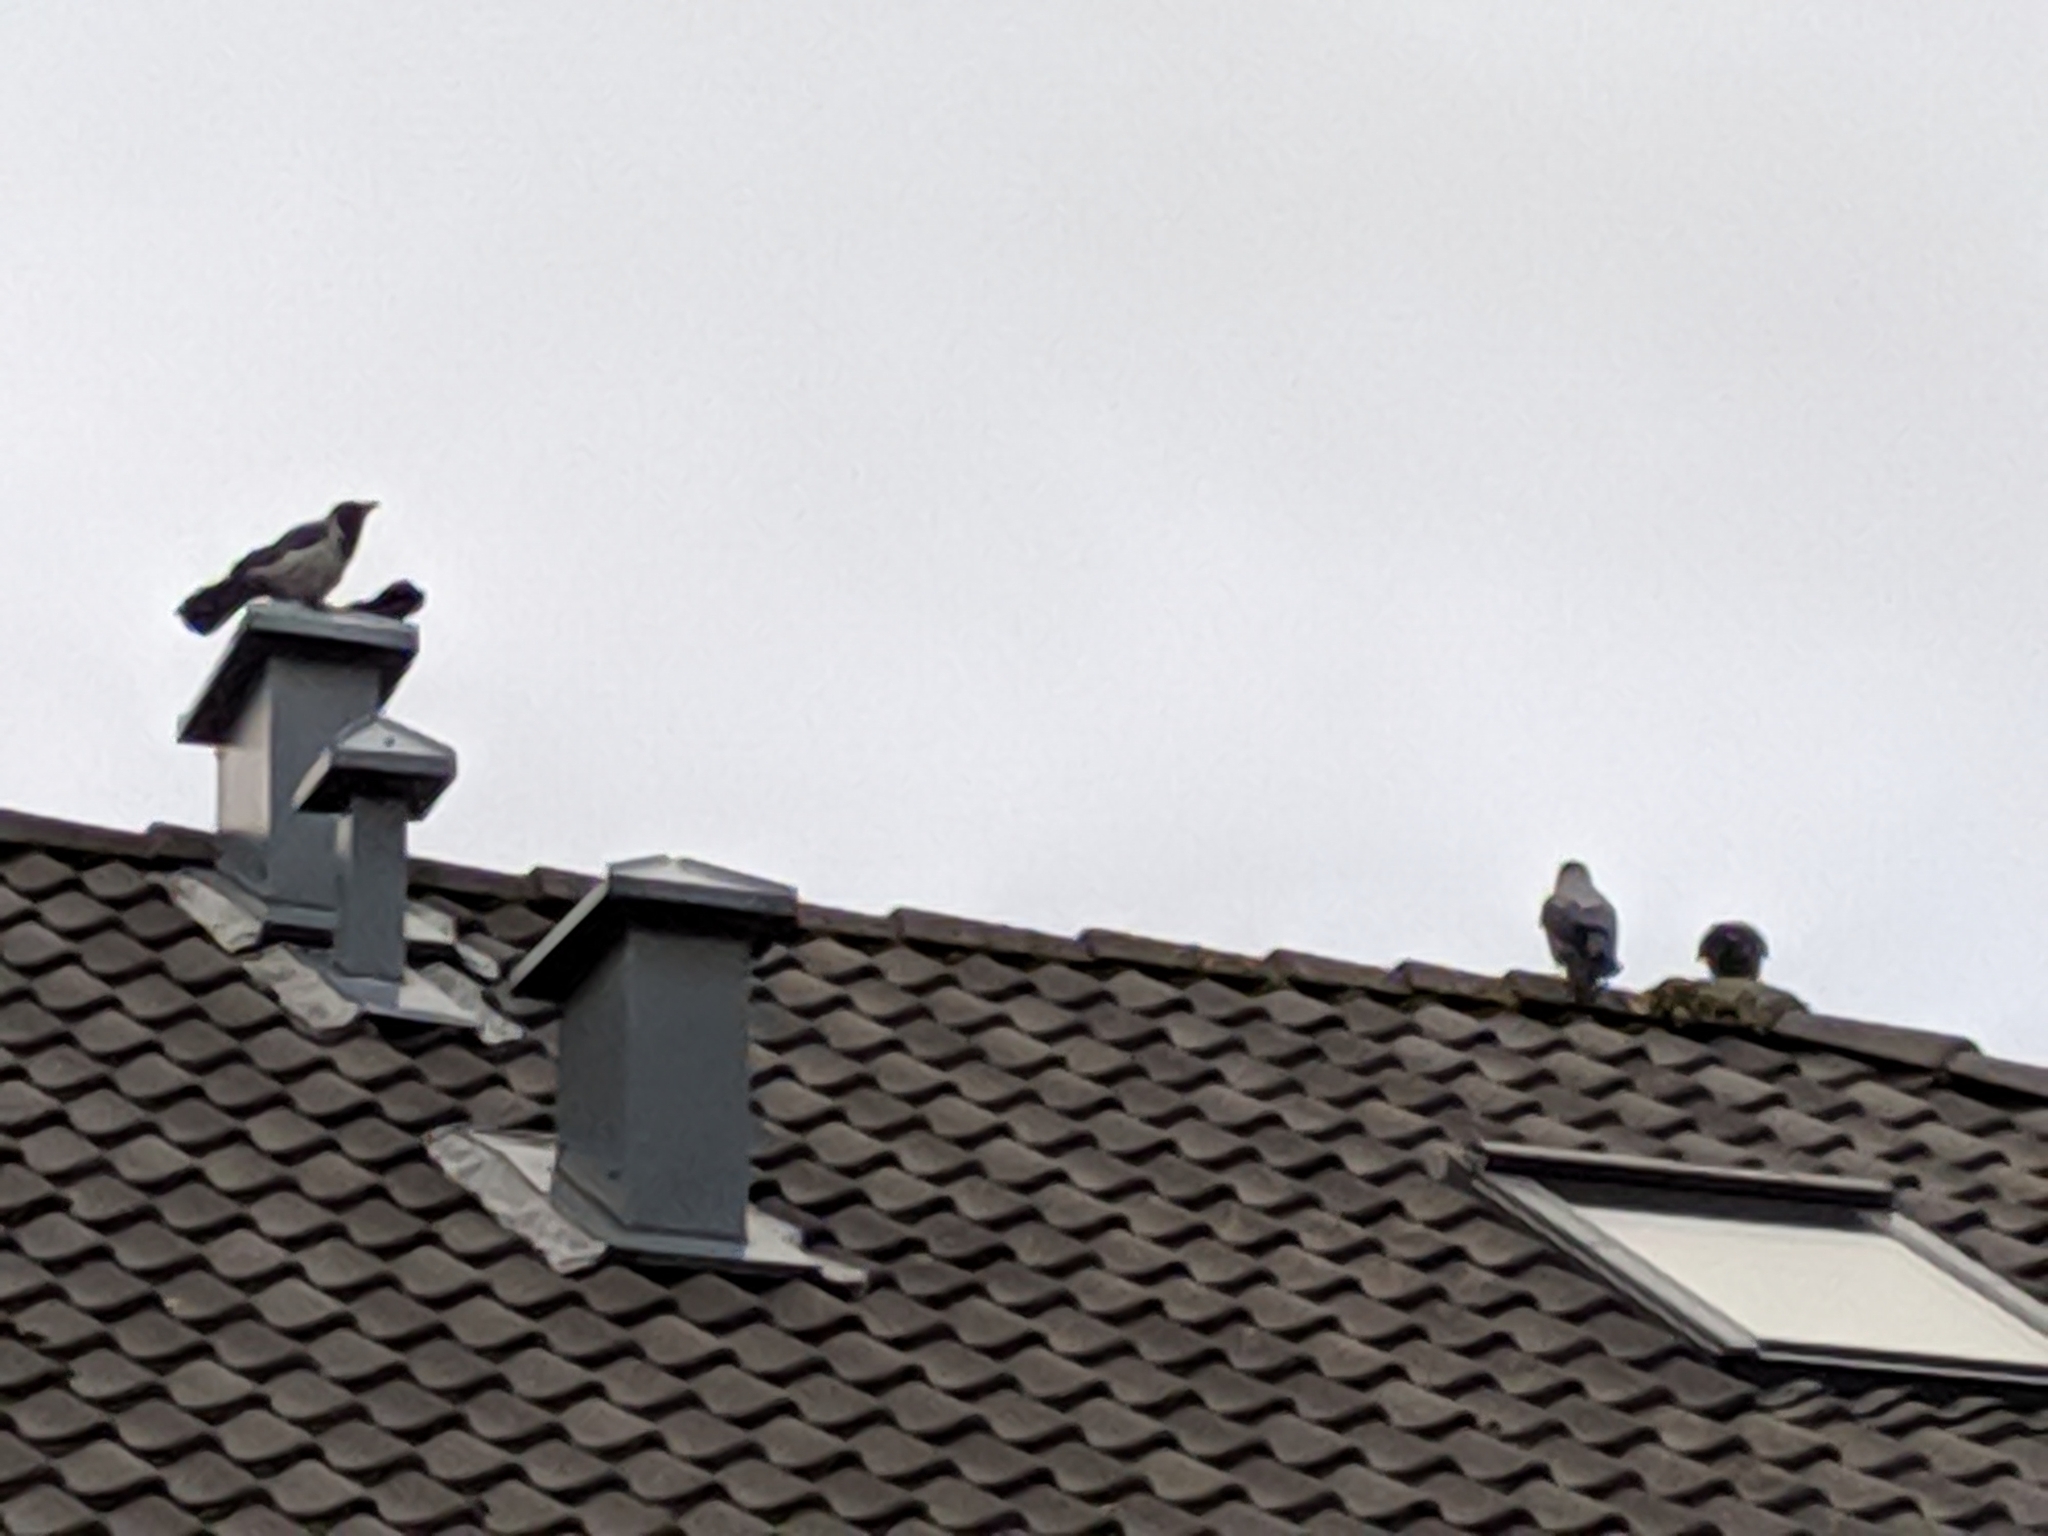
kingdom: Animalia
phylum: Chordata
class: Aves
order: Passeriformes
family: Corvidae
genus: Corvus
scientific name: Corvus cornix
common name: Hooded crow
